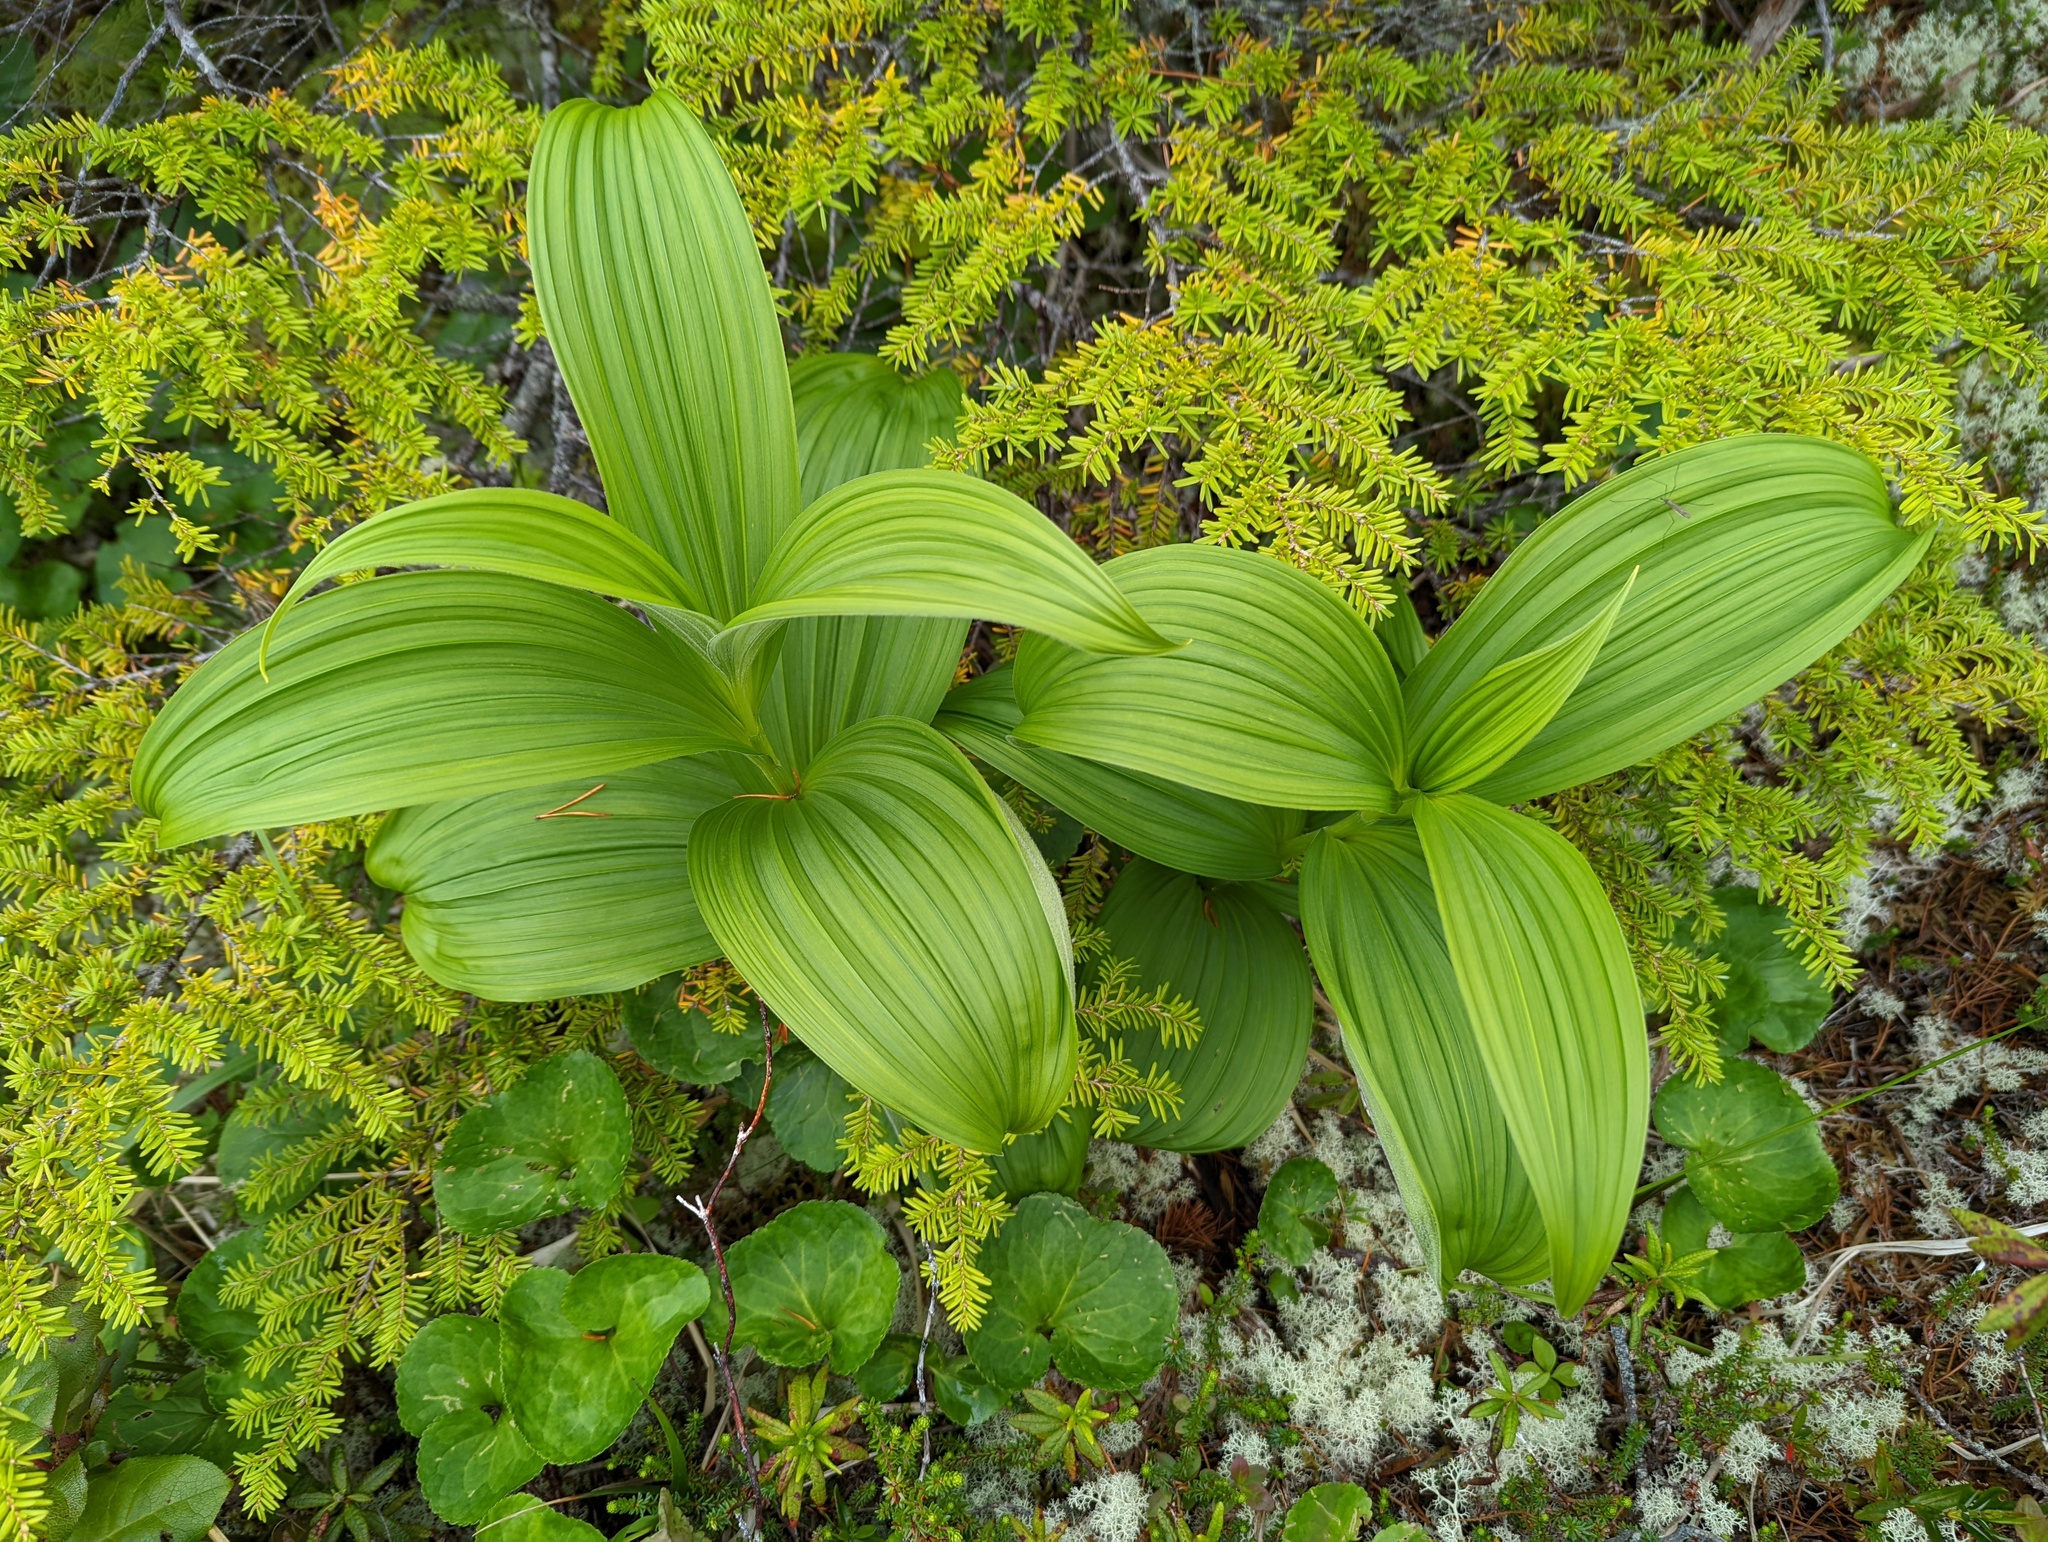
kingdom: Plantae
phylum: Tracheophyta
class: Liliopsida
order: Liliales
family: Melanthiaceae
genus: Veratrum
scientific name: Veratrum viride
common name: American false hellebore
